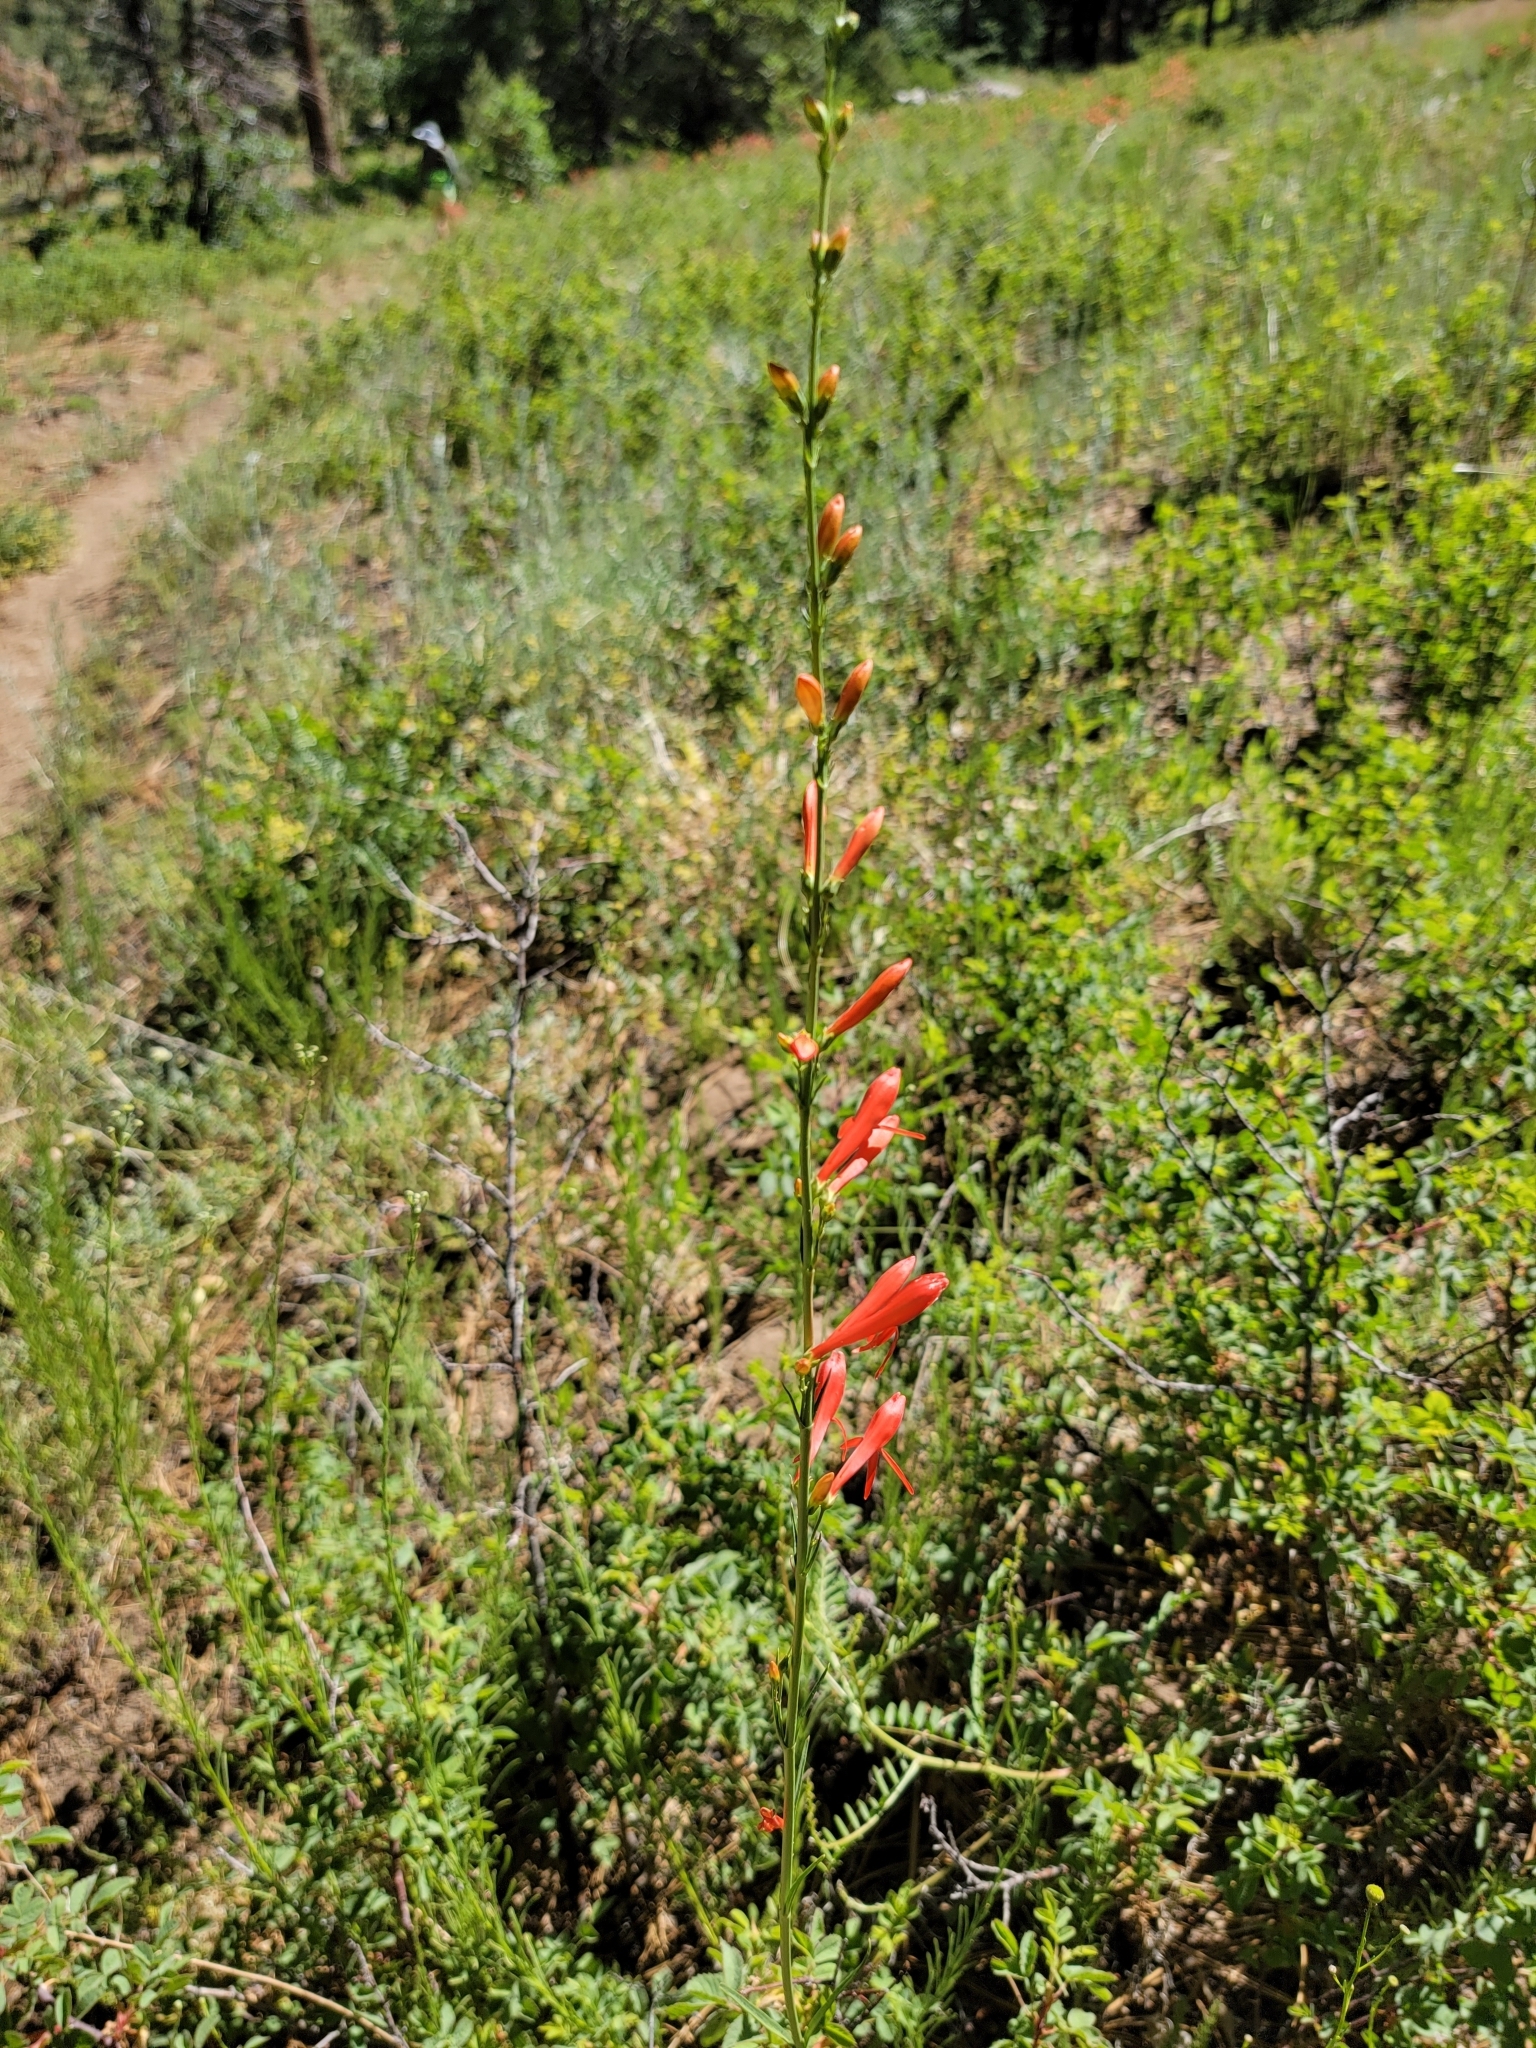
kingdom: Plantae
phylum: Tracheophyta
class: Magnoliopsida
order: Lamiales
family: Plantaginaceae
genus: Penstemon
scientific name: Penstemon labrosus
